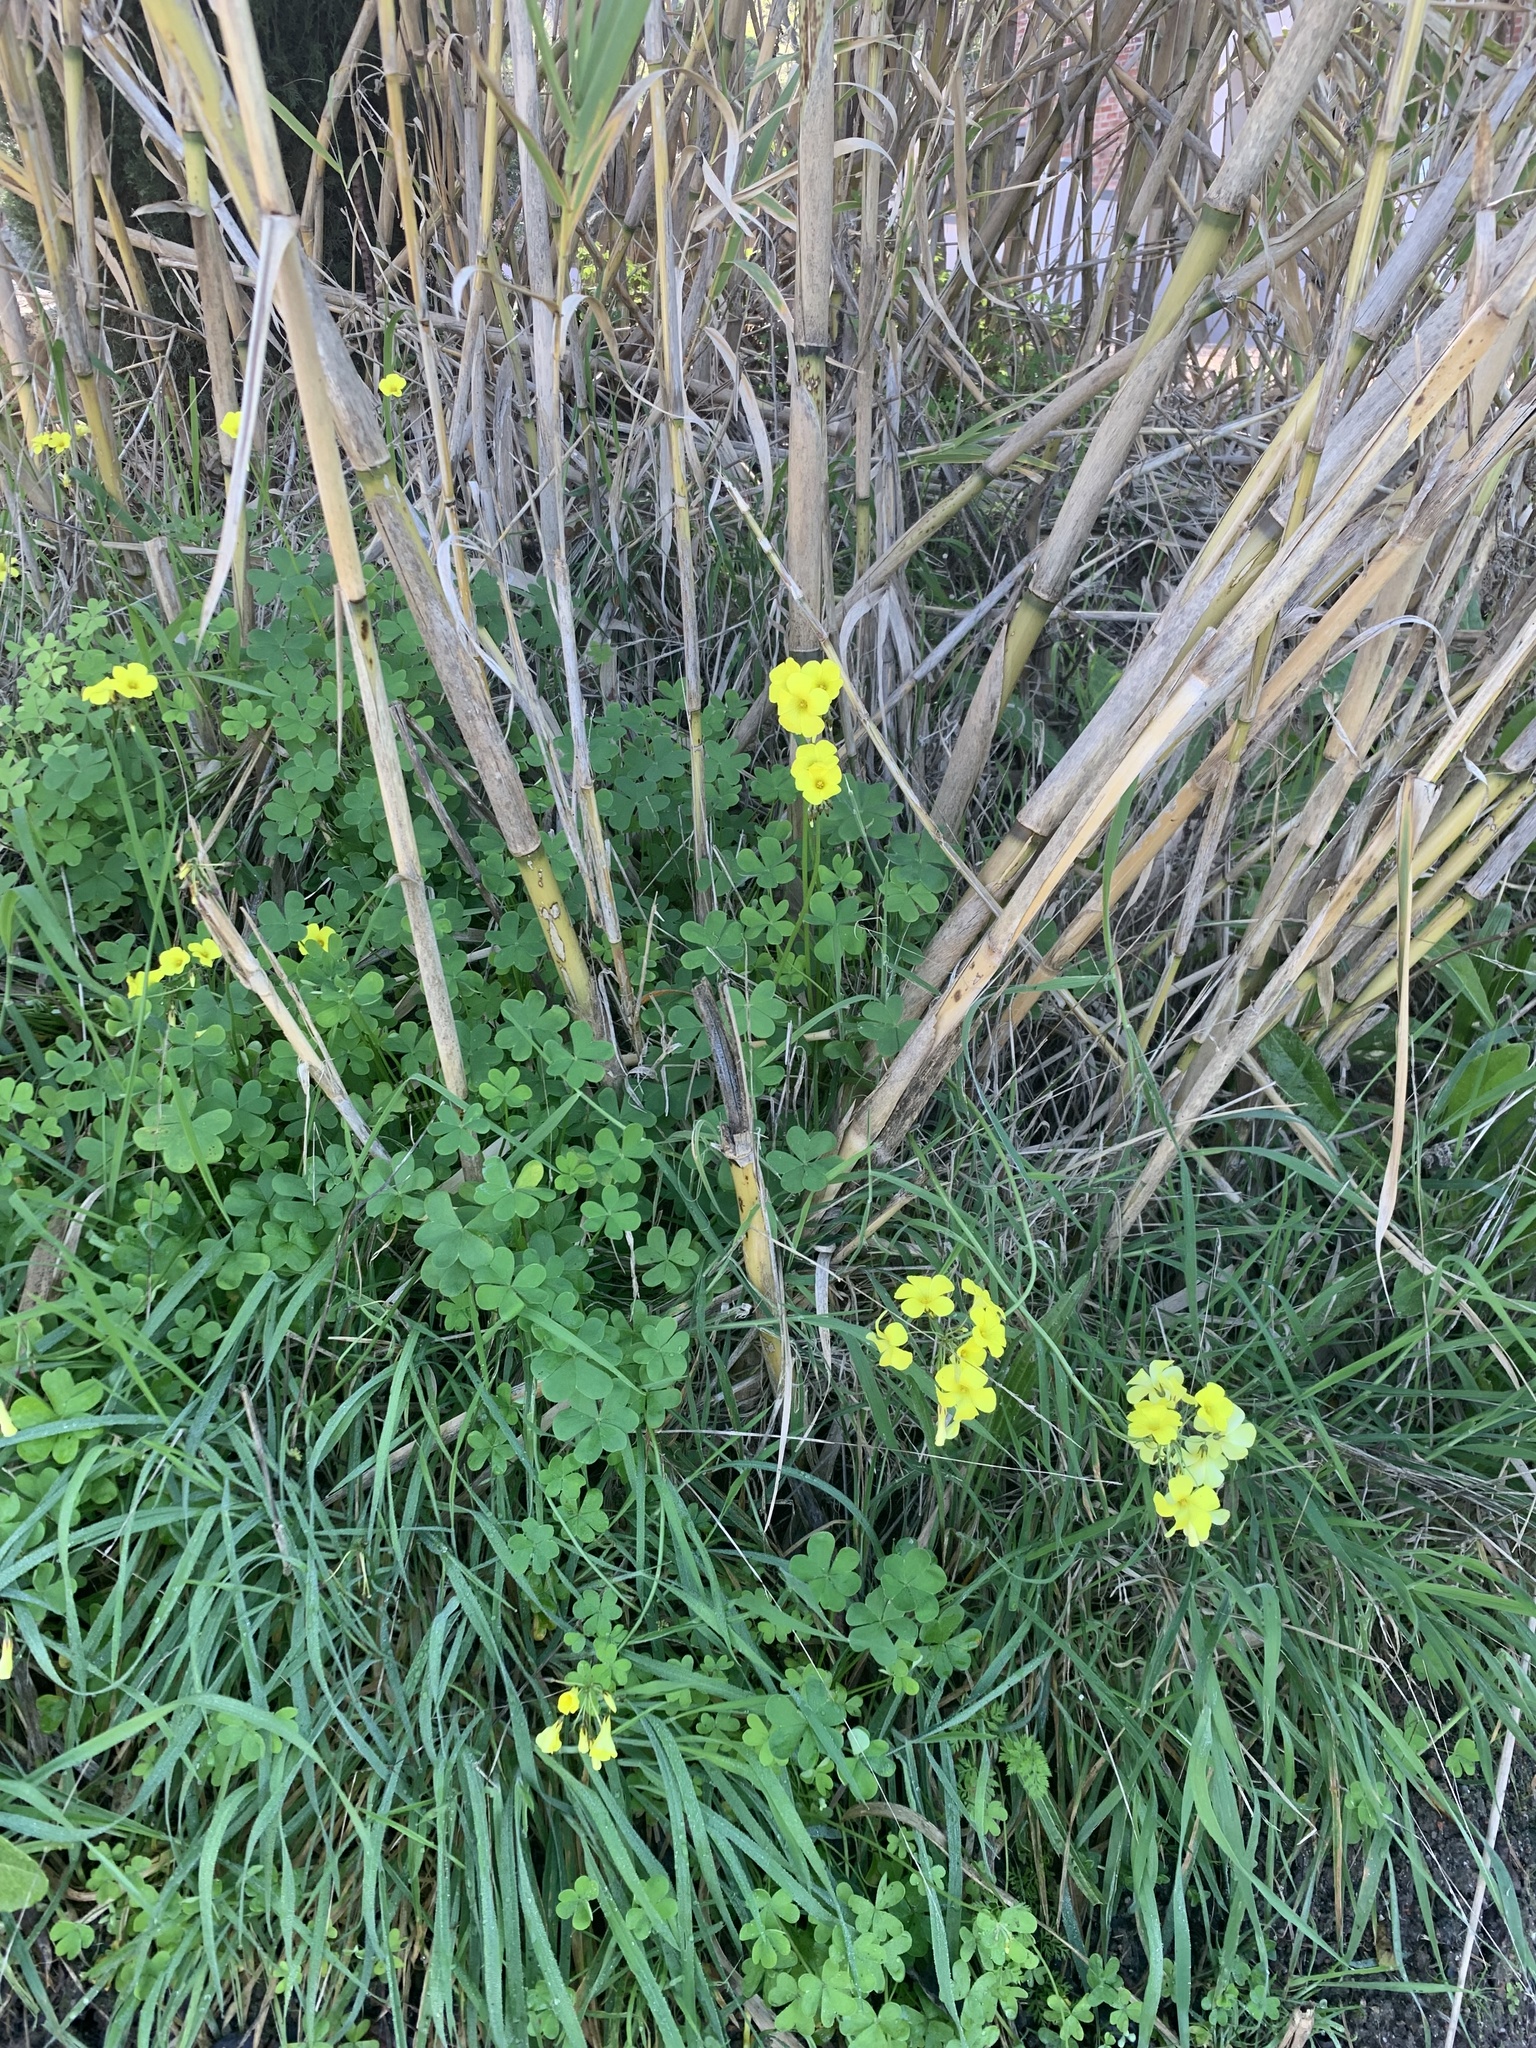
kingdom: Plantae
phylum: Tracheophyta
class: Magnoliopsida
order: Oxalidales
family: Oxalidaceae
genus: Oxalis
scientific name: Oxalis pes-caprae
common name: Bermuda-buttercup
